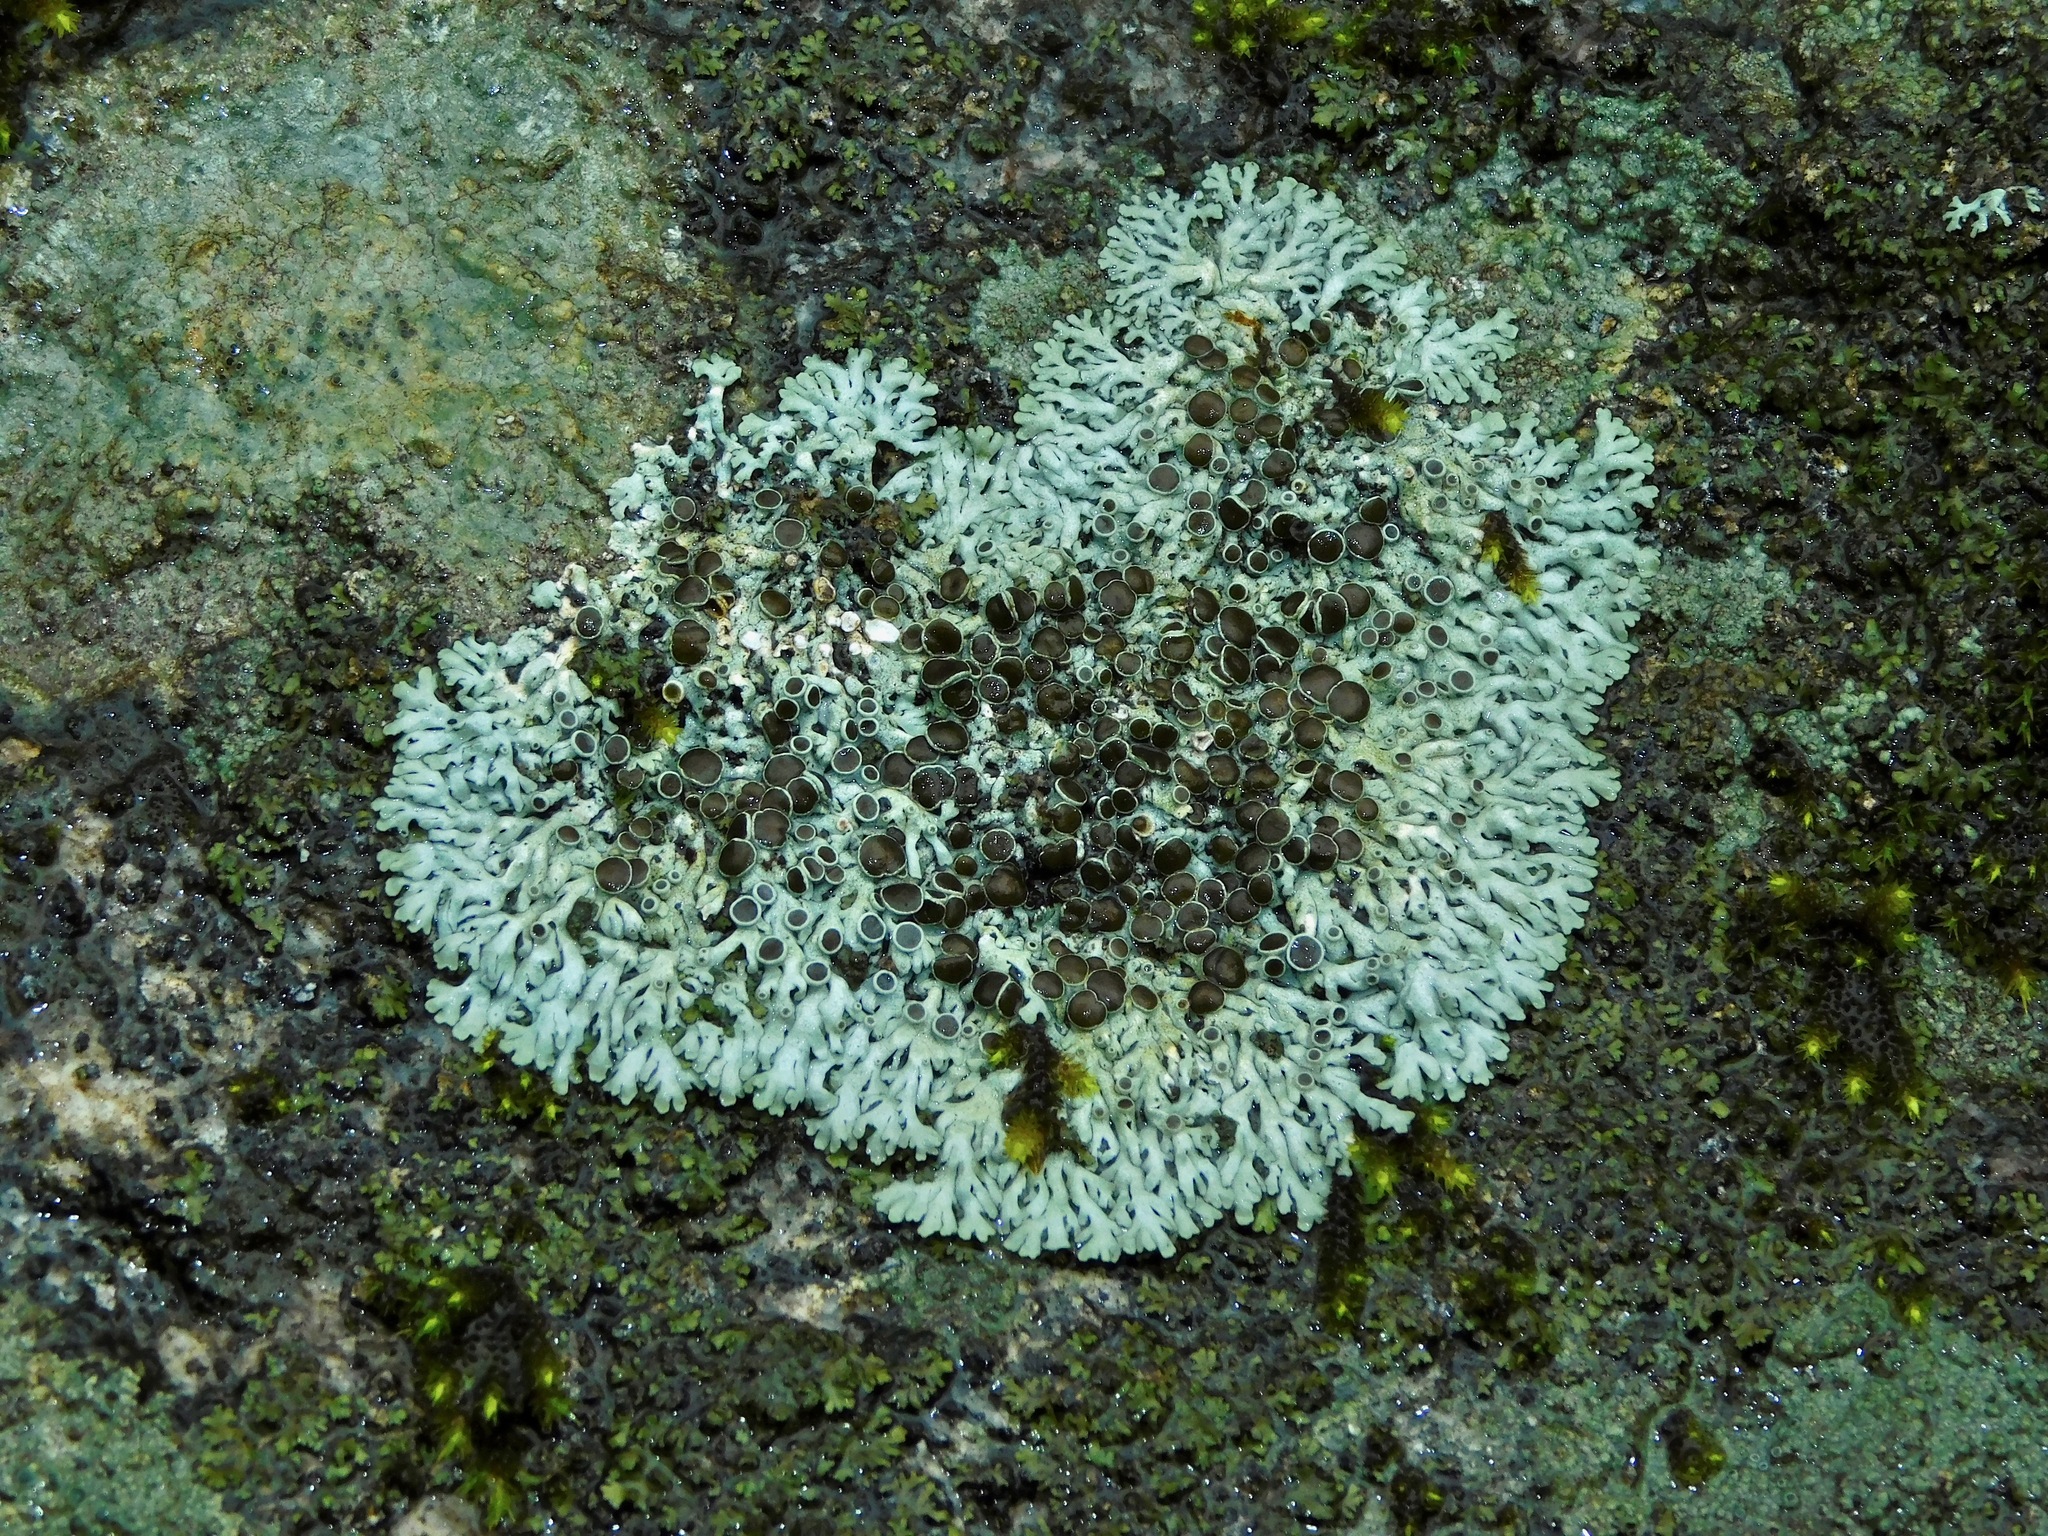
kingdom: Fungi
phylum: Ascomycota
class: Lecanoromycetes
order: Caliciales
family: Physciaceae
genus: Physcia
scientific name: Physcia halei
